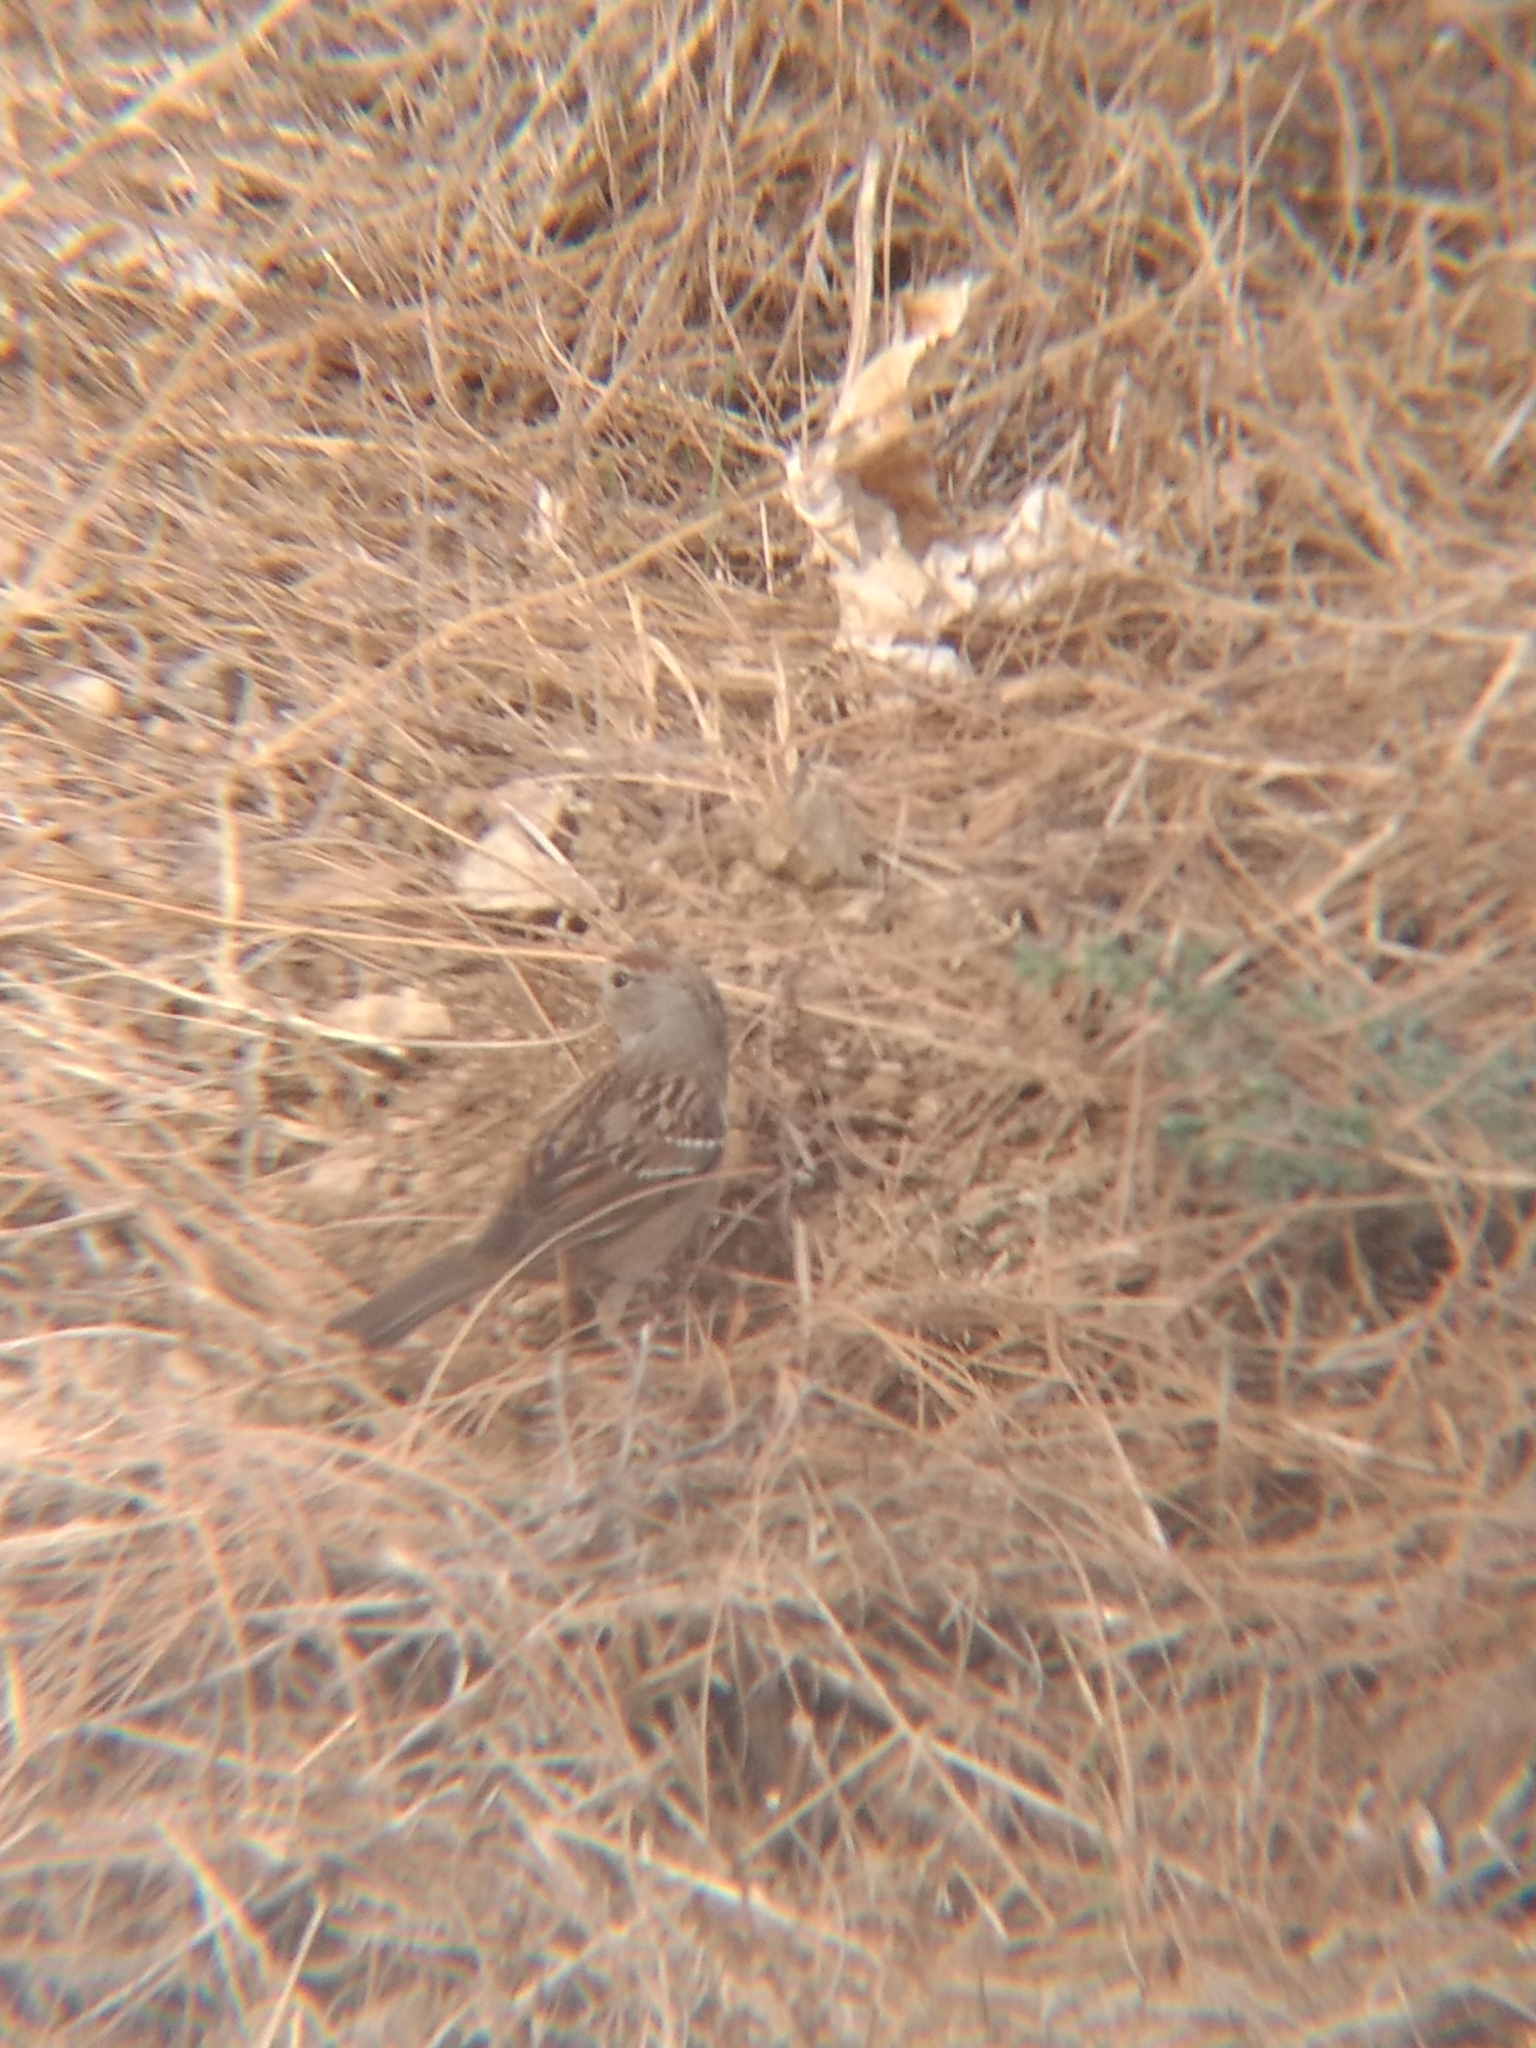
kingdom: Animalia
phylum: Chordata
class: Aves
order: Passeriformes
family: Passerellidae
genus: Zonotrichia
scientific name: Zonotrichia leucophrys
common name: White-crowned sparrow
